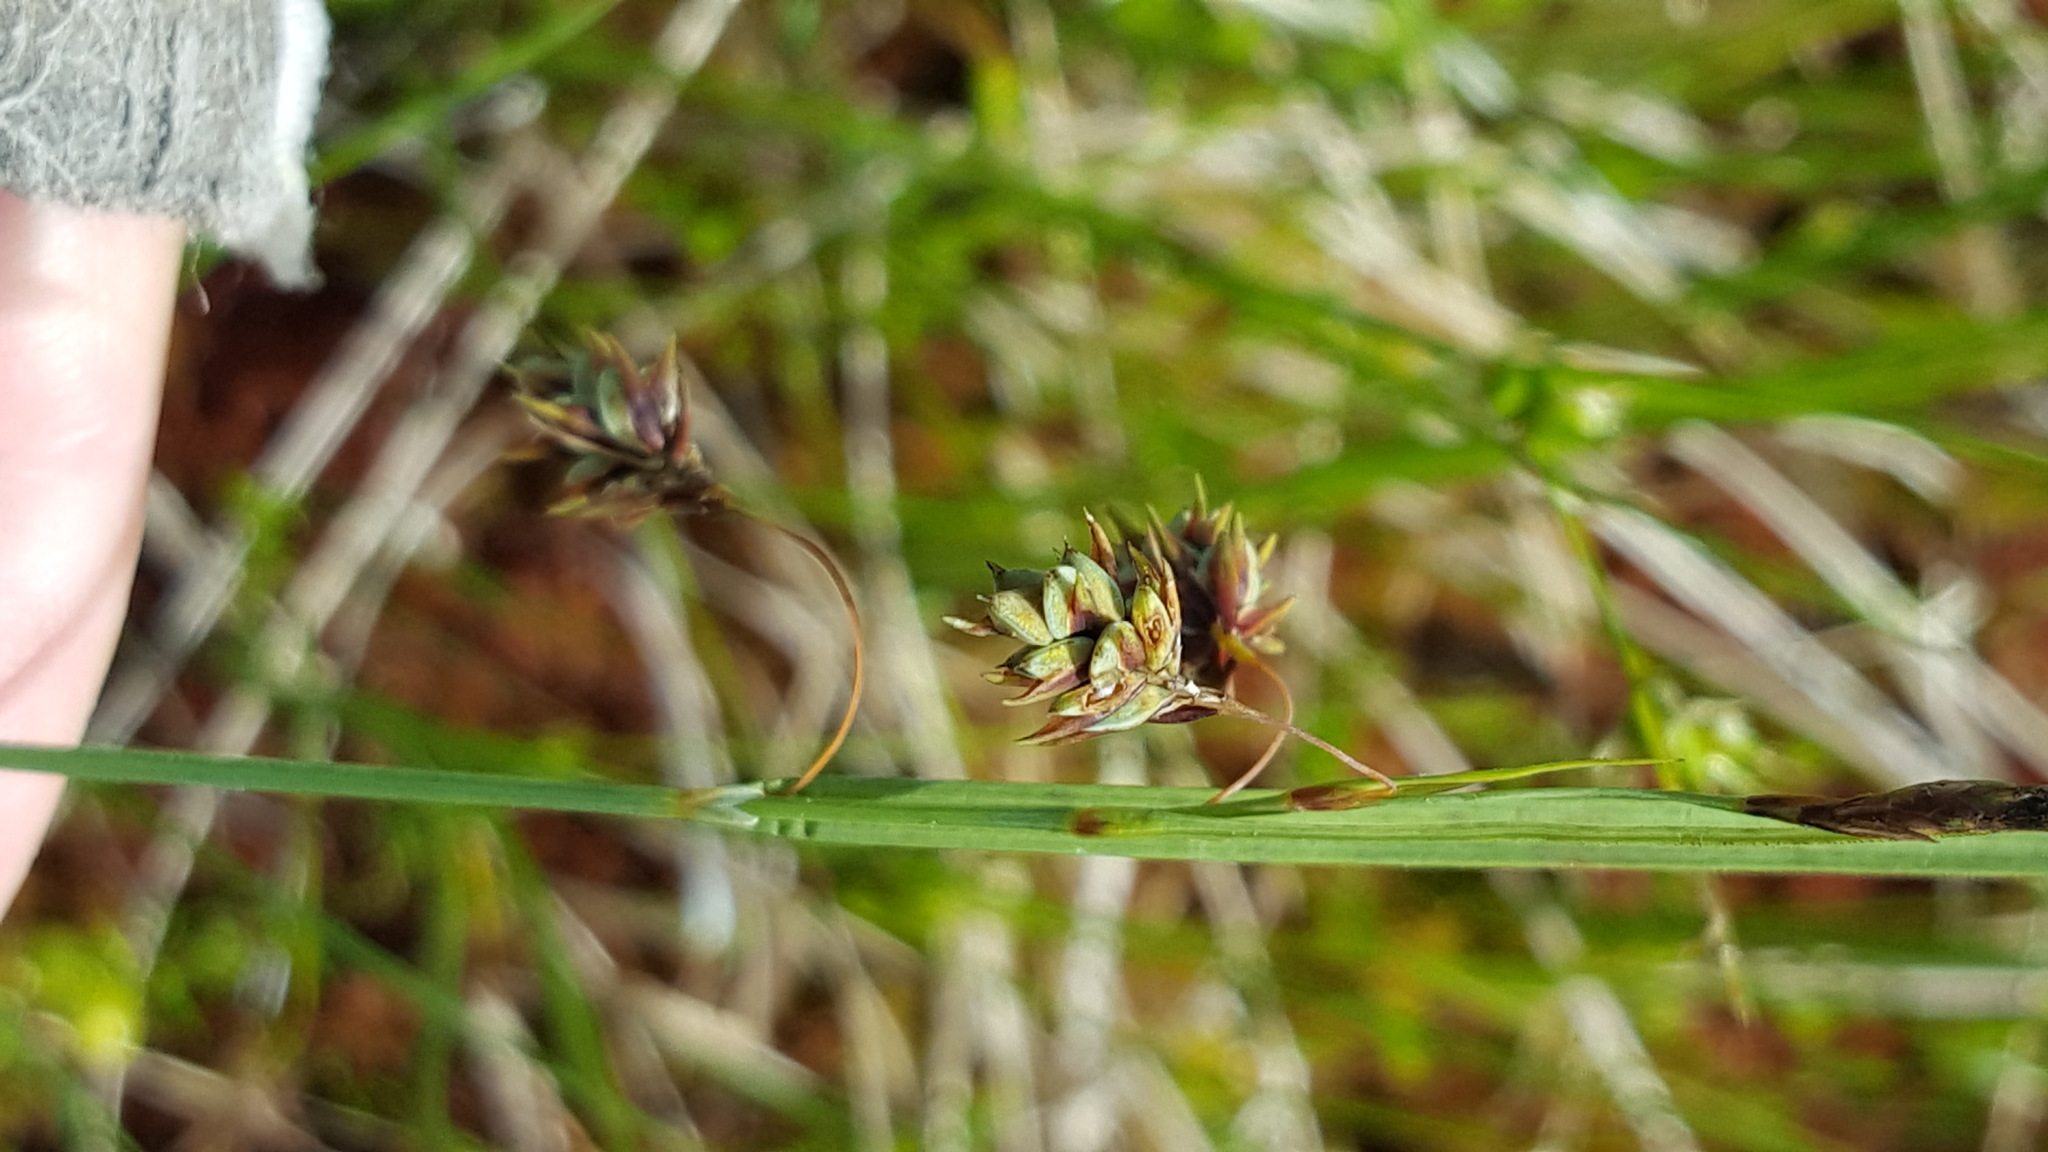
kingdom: Plantae
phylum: Tracheophyta
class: Liliopsida
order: Poales
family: Cyperaceae
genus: Carex
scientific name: Carex magellanica
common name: Bog sedge
